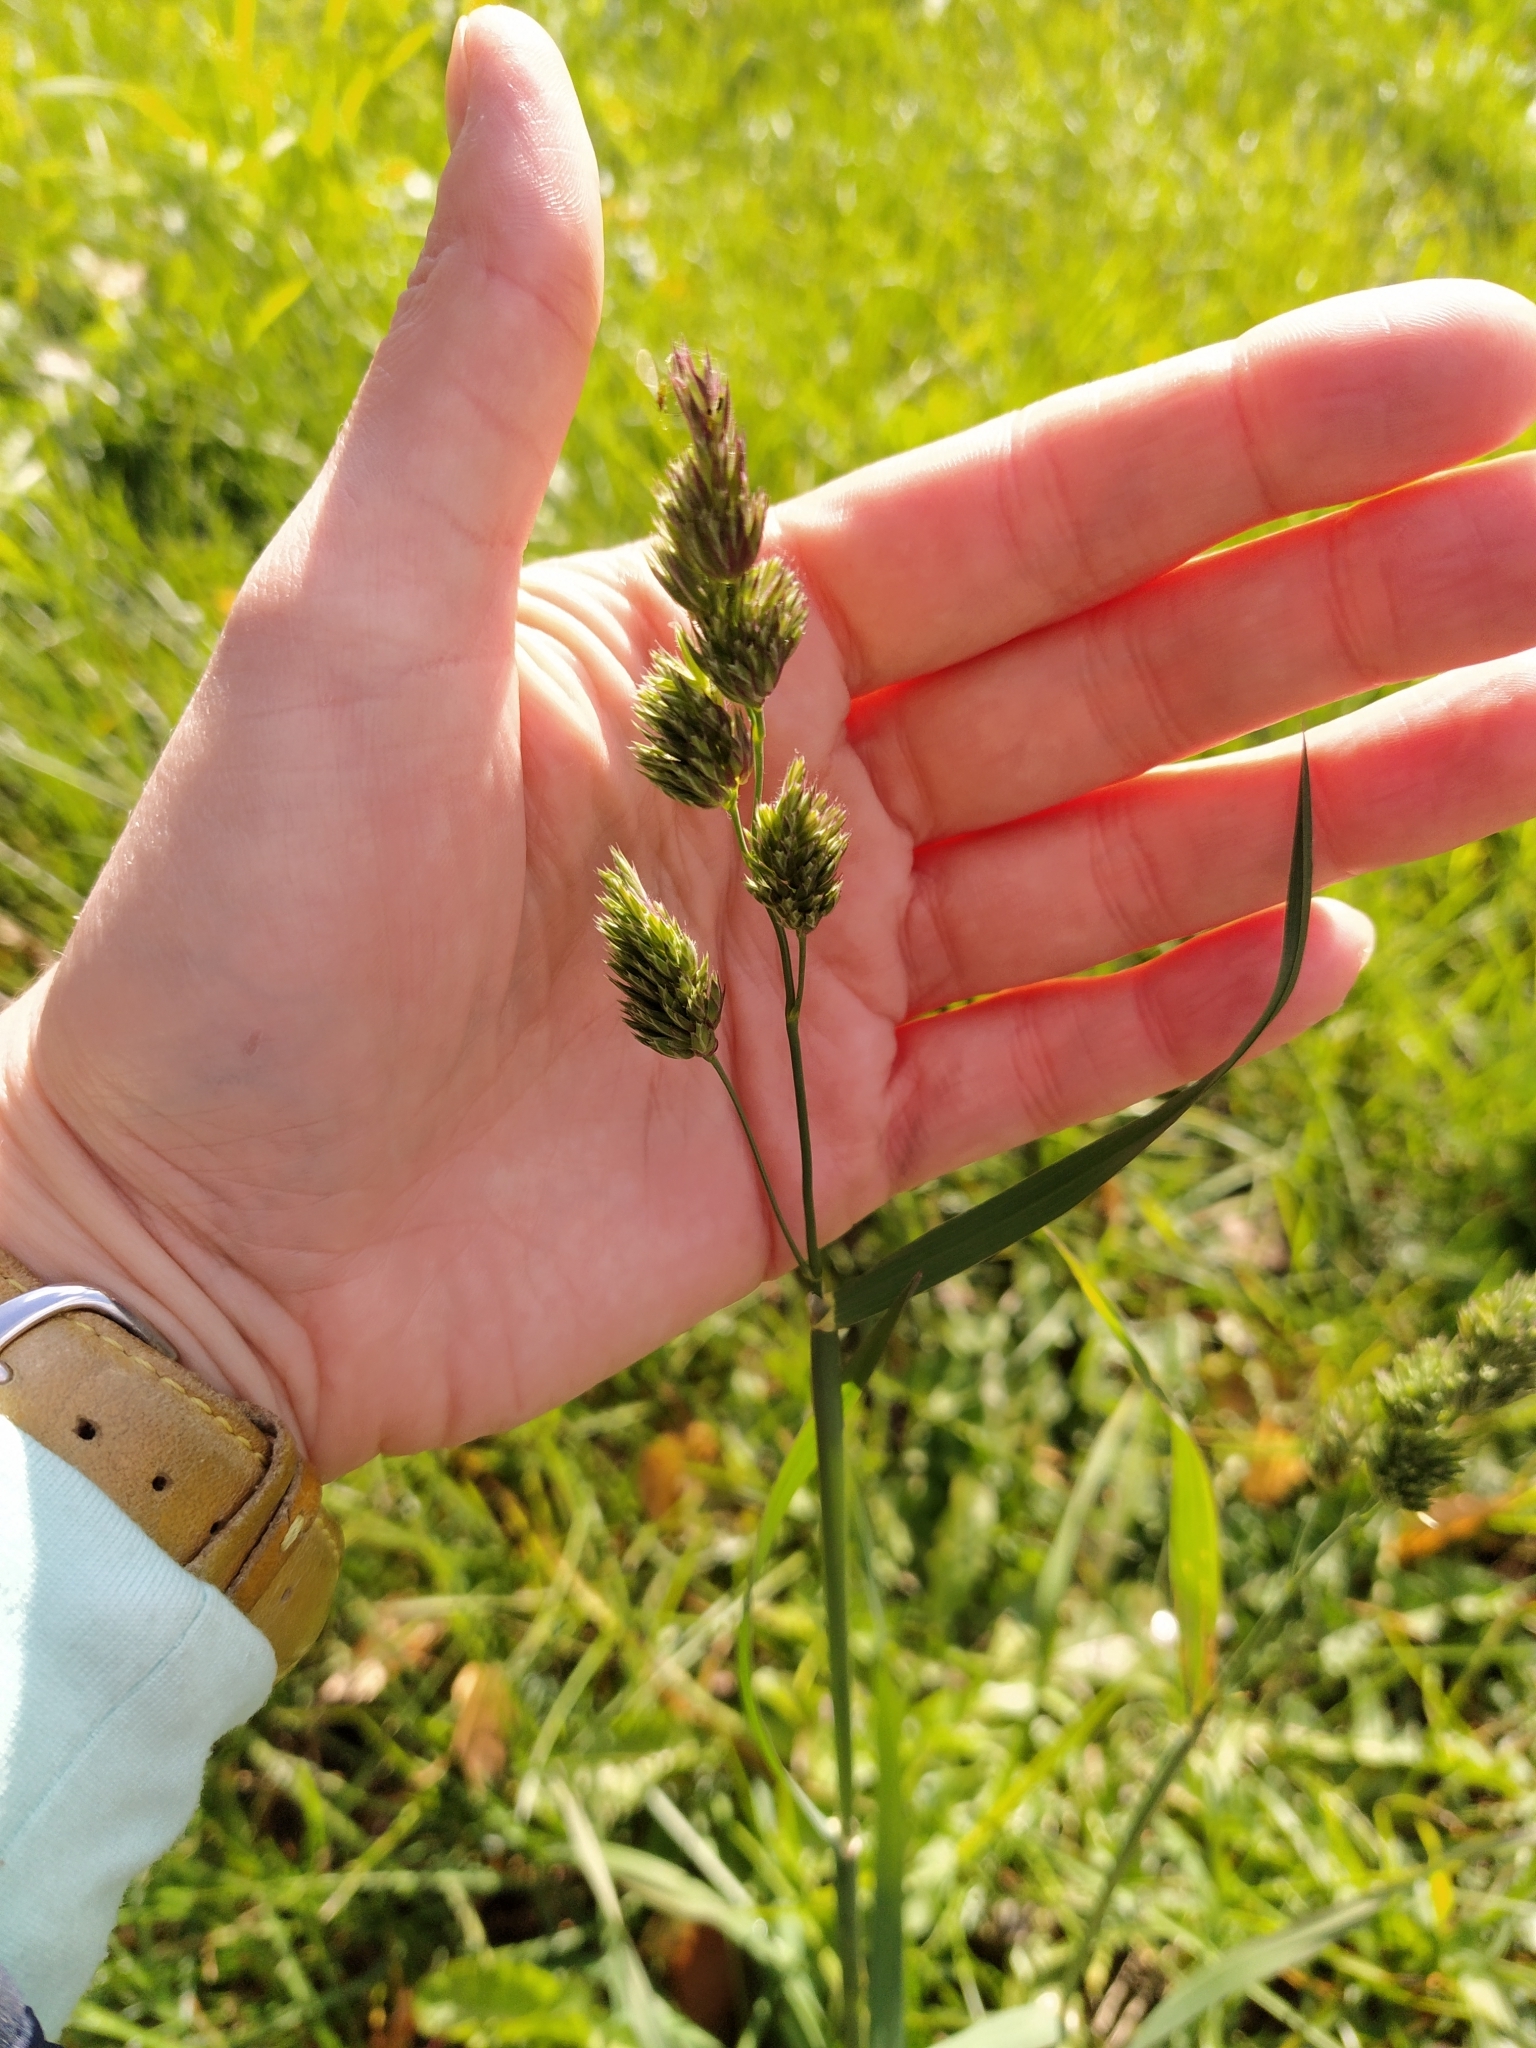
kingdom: Plantae
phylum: Tracheophyta
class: Liliopsida
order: Poales
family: Poaceae
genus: Dactylis
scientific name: Dactylis glomerata
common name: Orchardgrass
